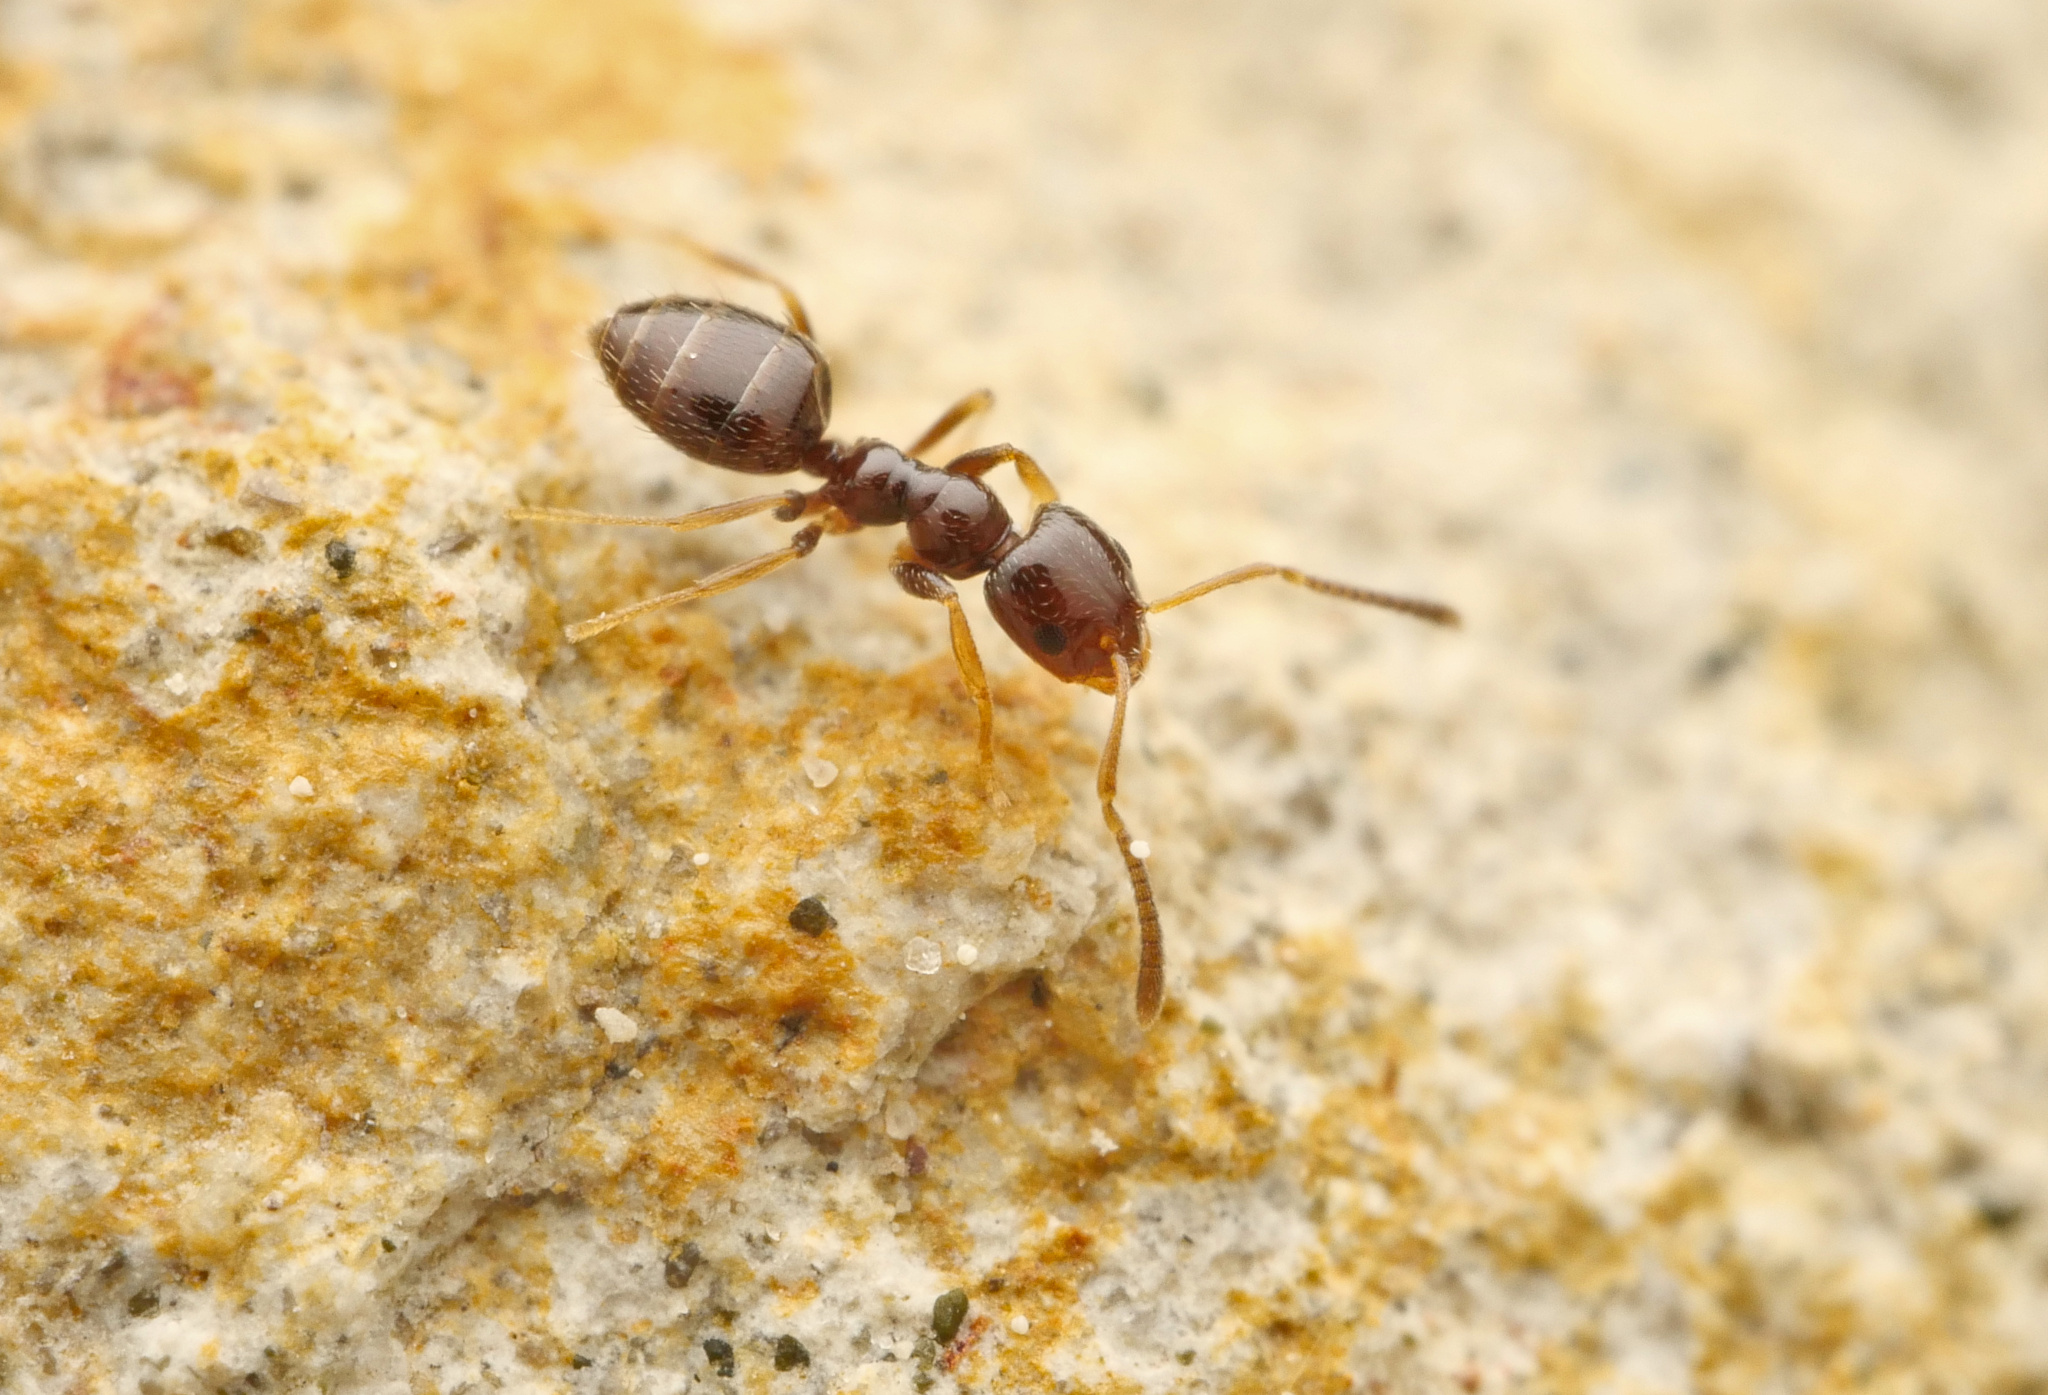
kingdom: Animalia
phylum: Arthropoda
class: Insecta
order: Hymenoptera
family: Formicidae
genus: Plagiolepis
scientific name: Plagiolepis pallescens
